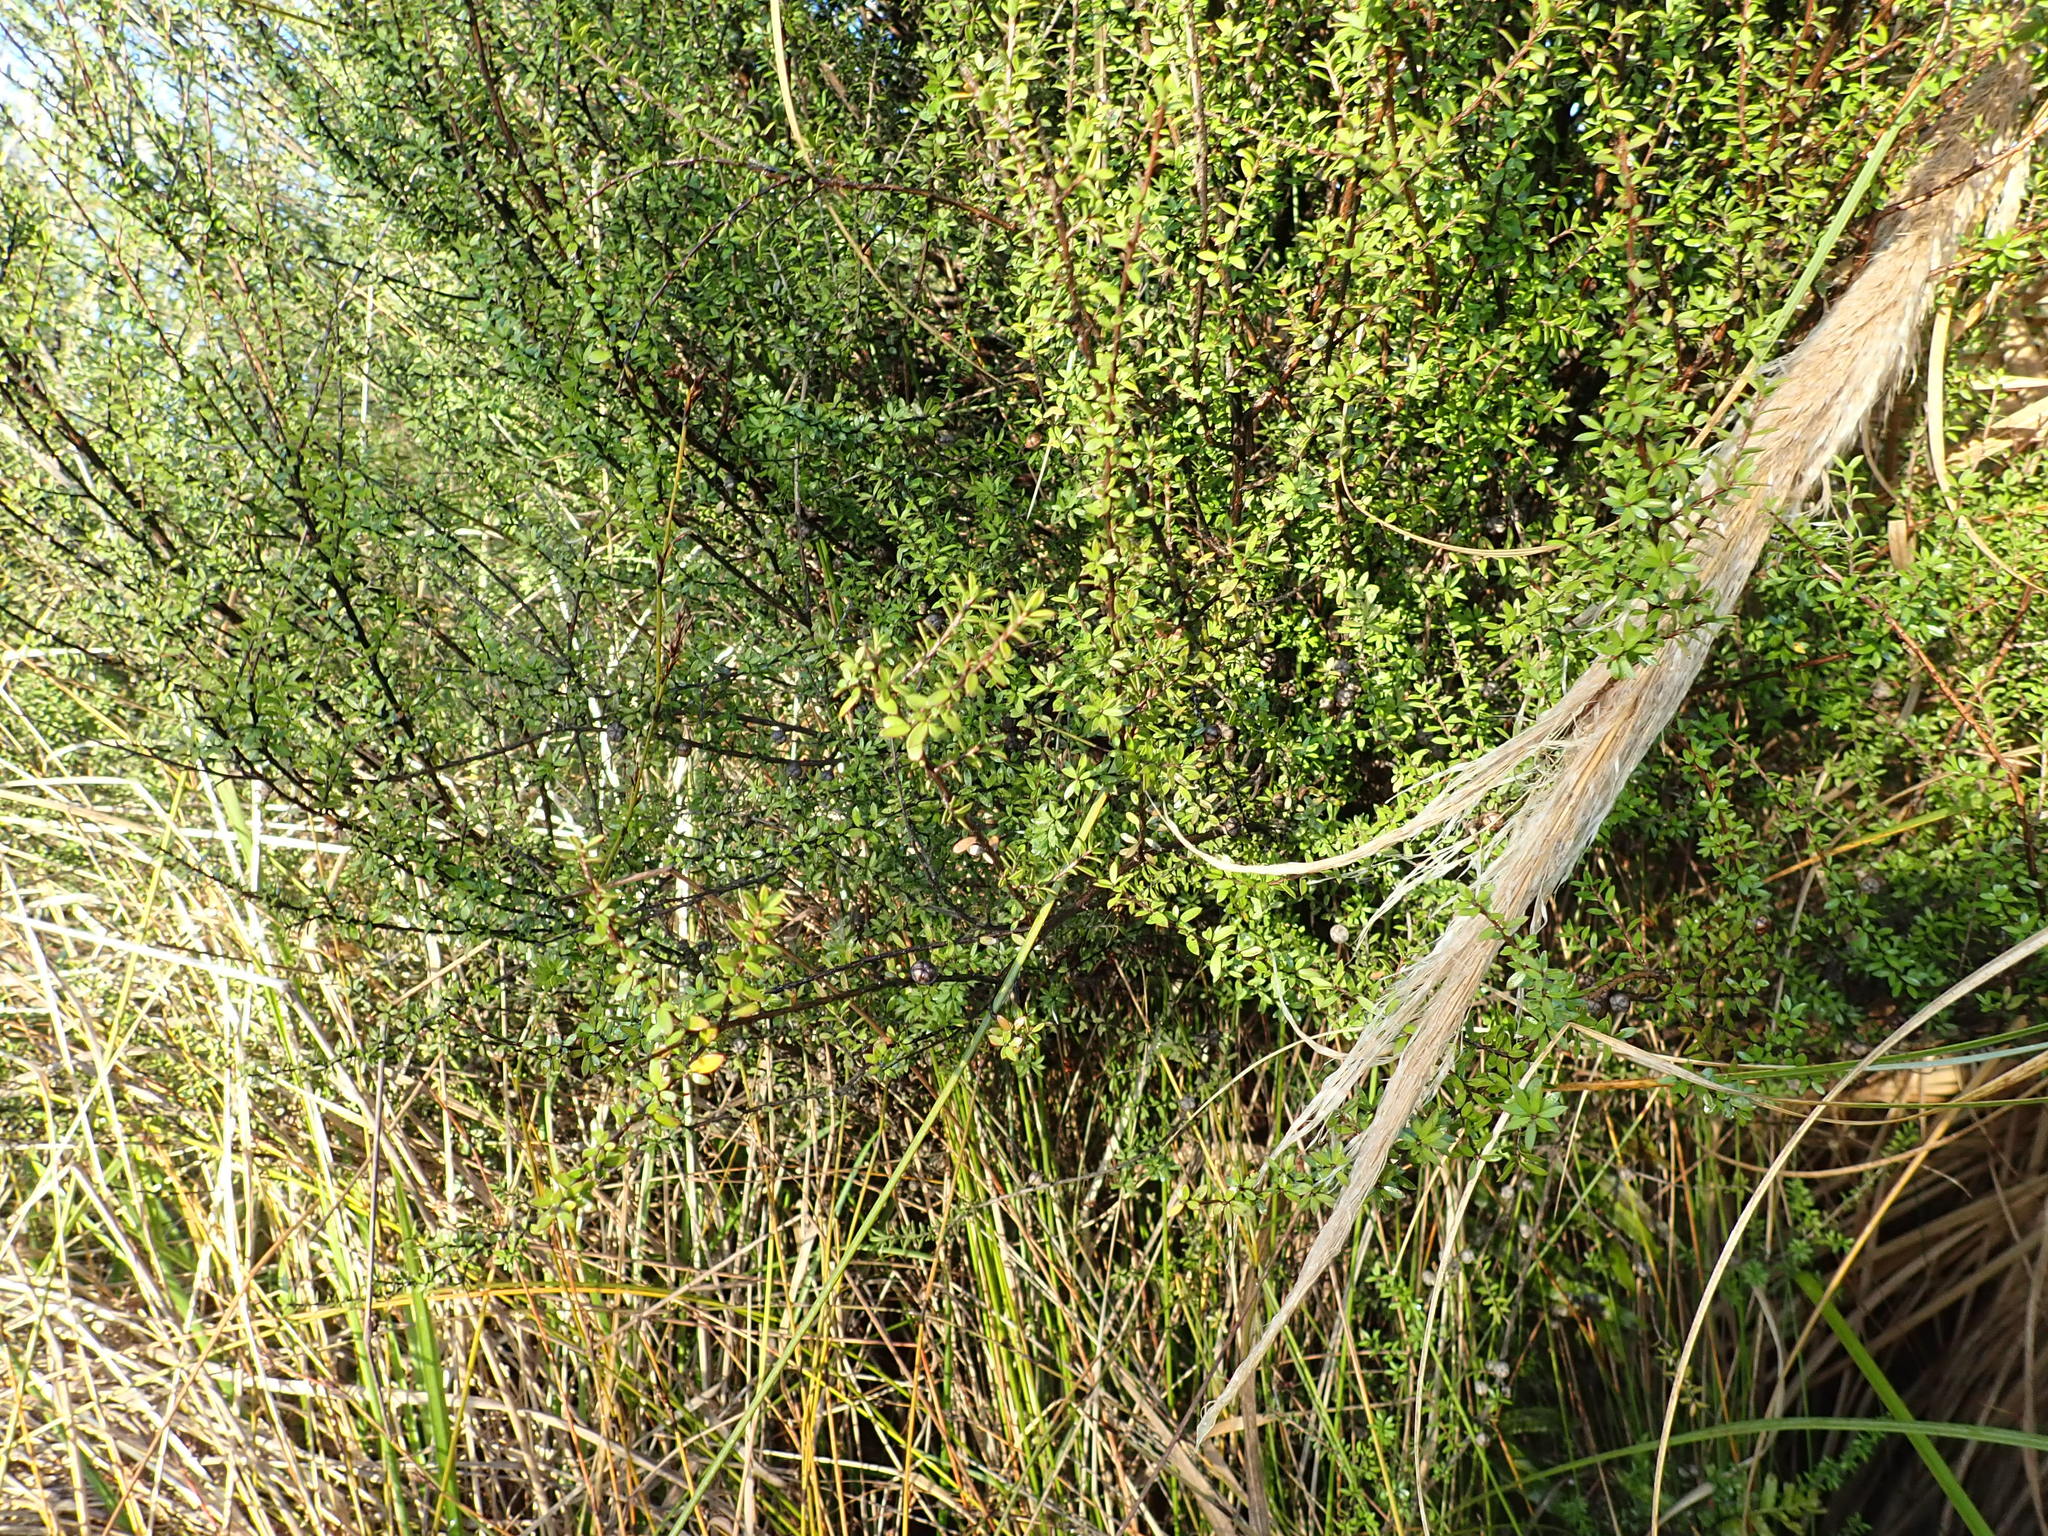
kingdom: Plantae
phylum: Tracheophyta
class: Magnoliopsida
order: Myrtales
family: Myrtaceae
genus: Leptospermum
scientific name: Leptospermum scoparium
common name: Broom tea-tree
